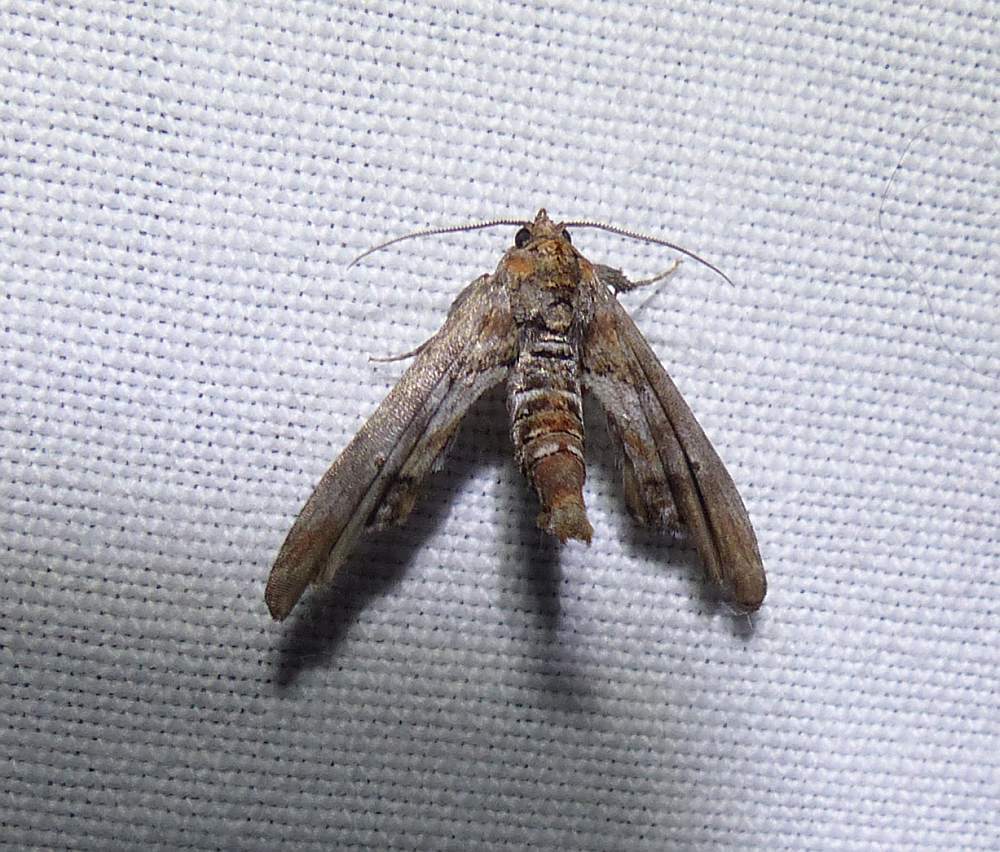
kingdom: Animalia
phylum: Arthropoda
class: Insecta
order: Lepidoptera
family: Euteliidae
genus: Marathyssa
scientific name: Marathyssa inficita
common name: Dark marathyssa moth
